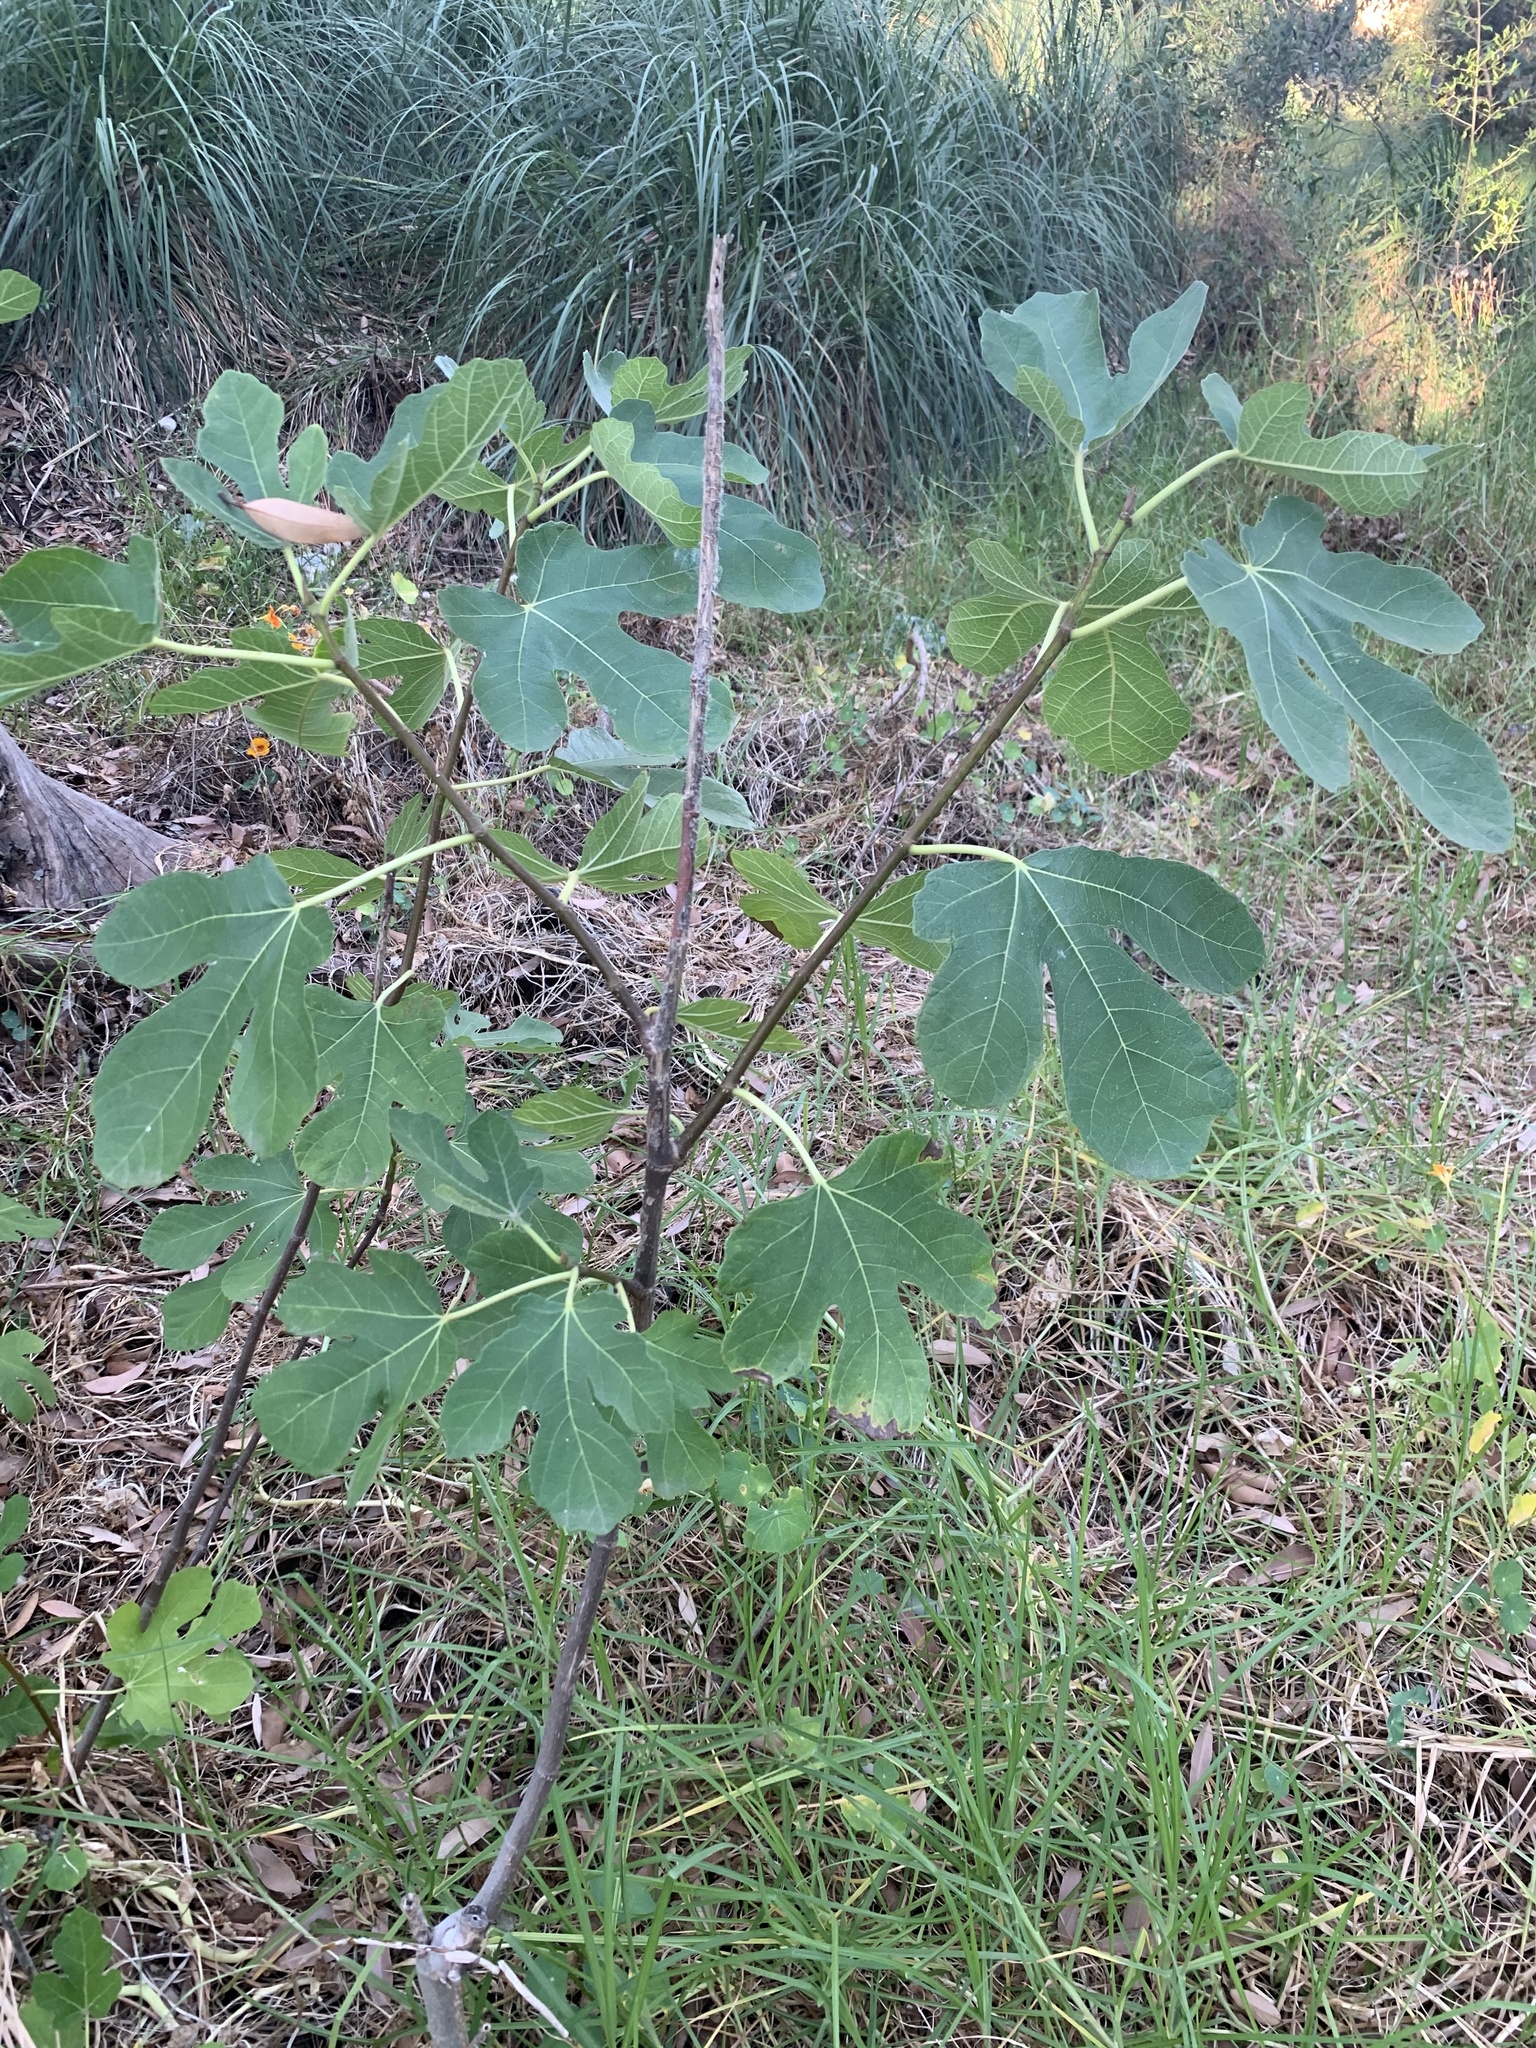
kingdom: Plantae
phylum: Tracheophyta
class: Magnoliopsida
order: Rosales
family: Moraceae
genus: Ficus
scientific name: Ficus carica
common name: Fig
